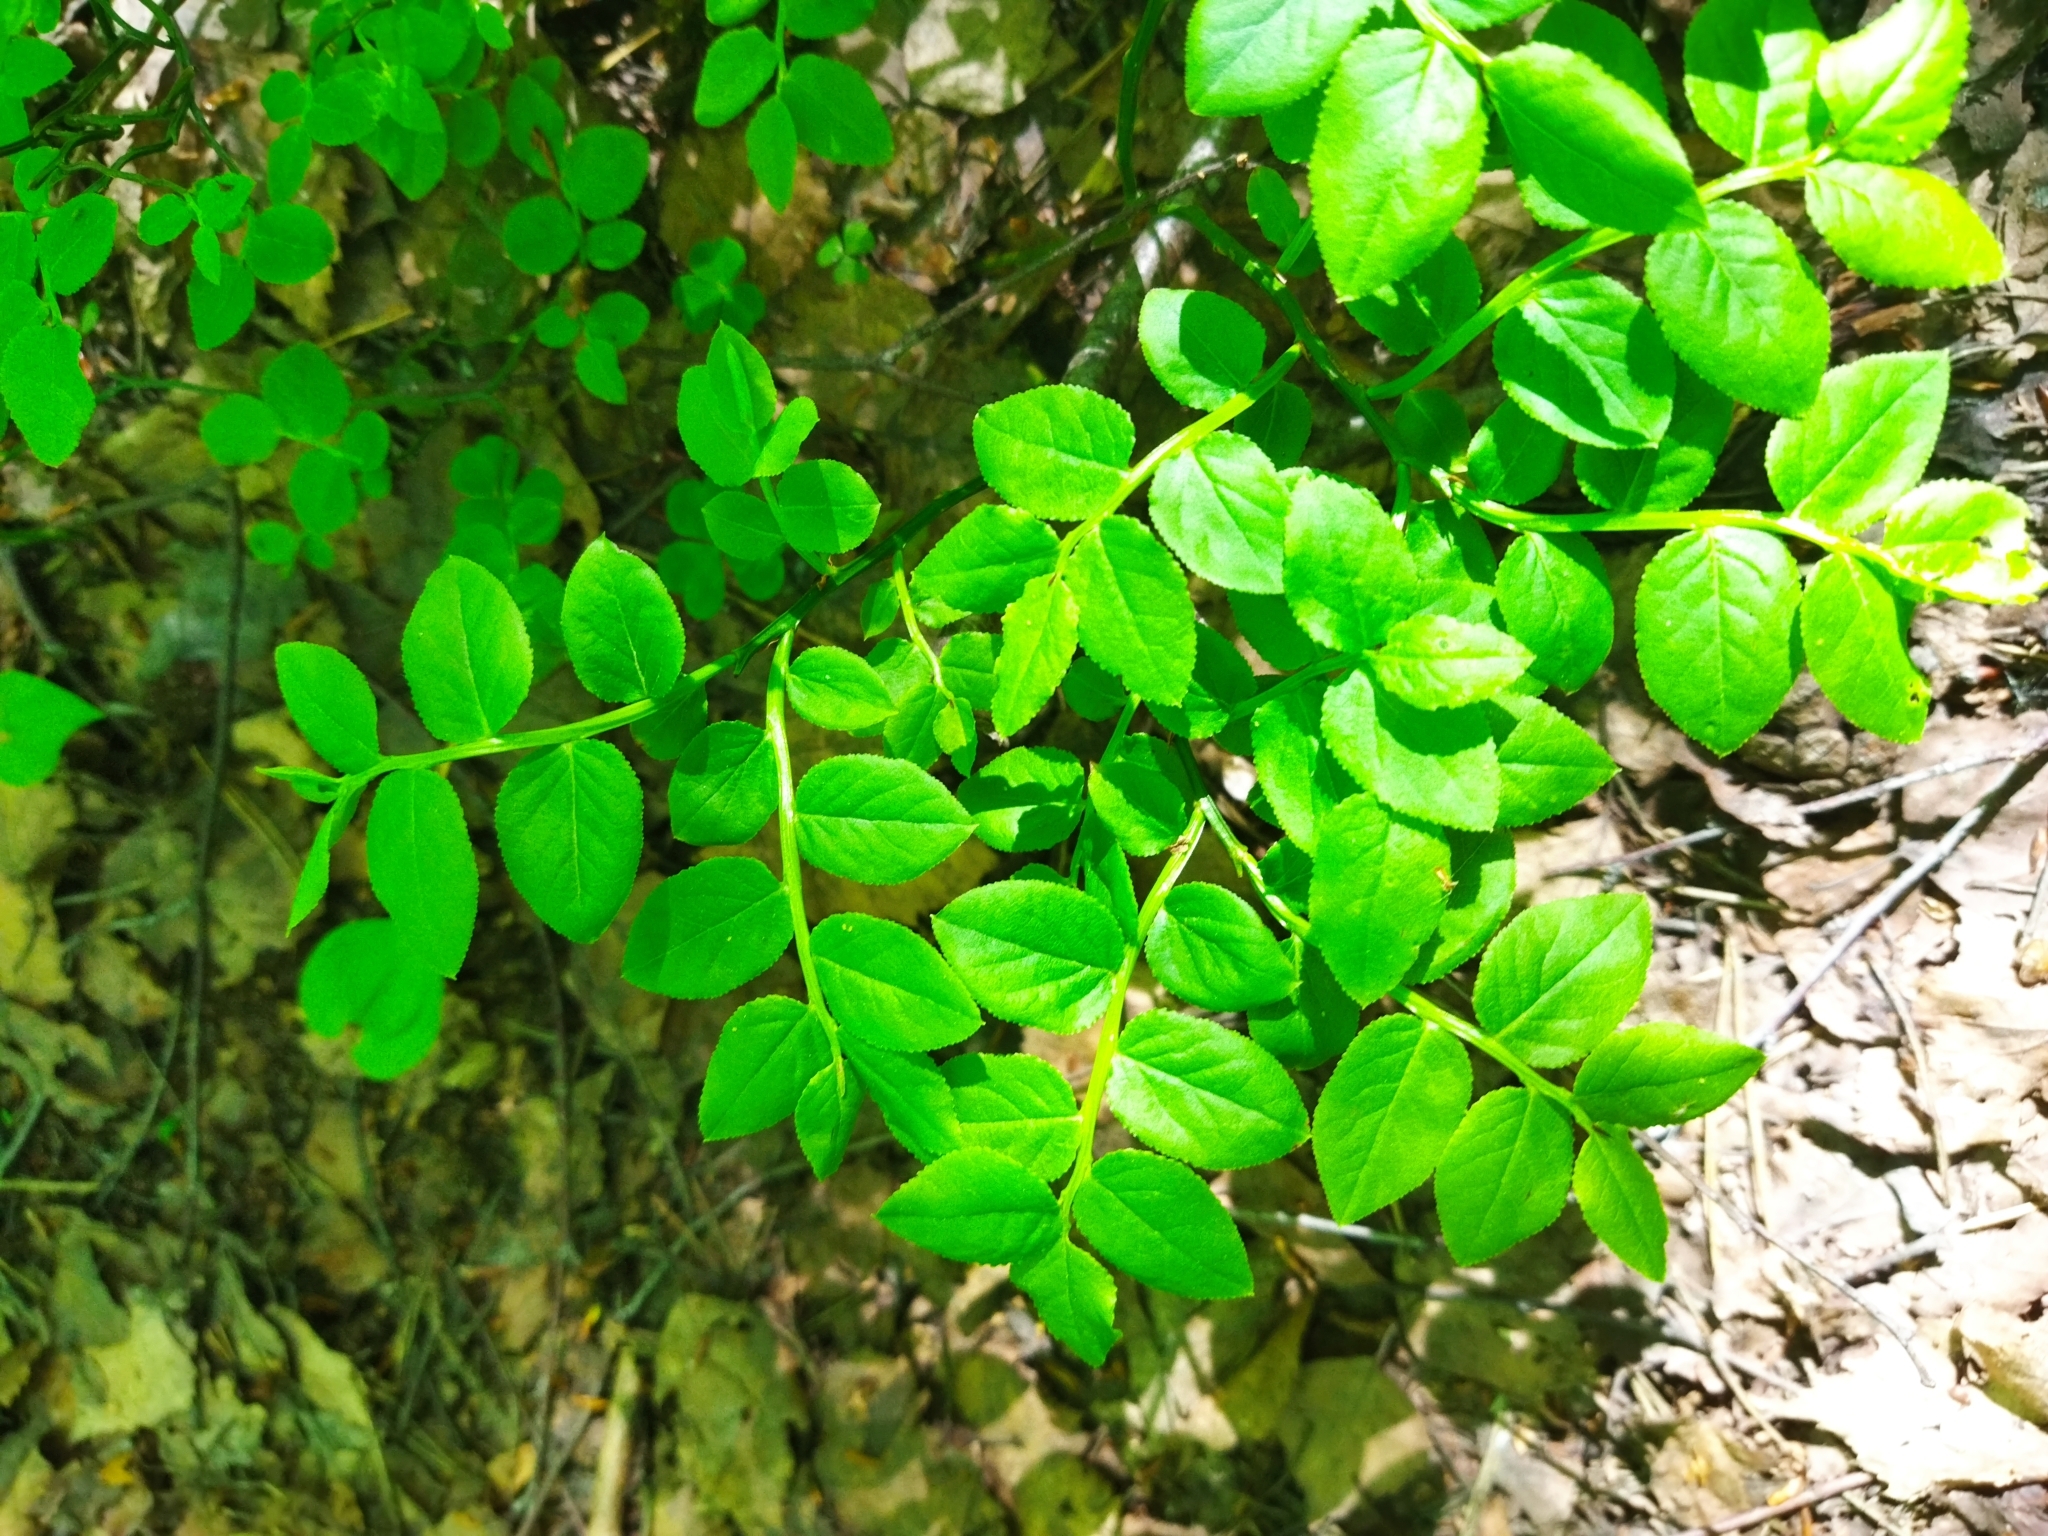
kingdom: Plantae
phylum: Tracheophyta
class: Magnoliopsida
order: Ericales
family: Ericaceae
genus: Vaccinium
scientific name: Vaccinium myrtillus
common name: Bilberry
